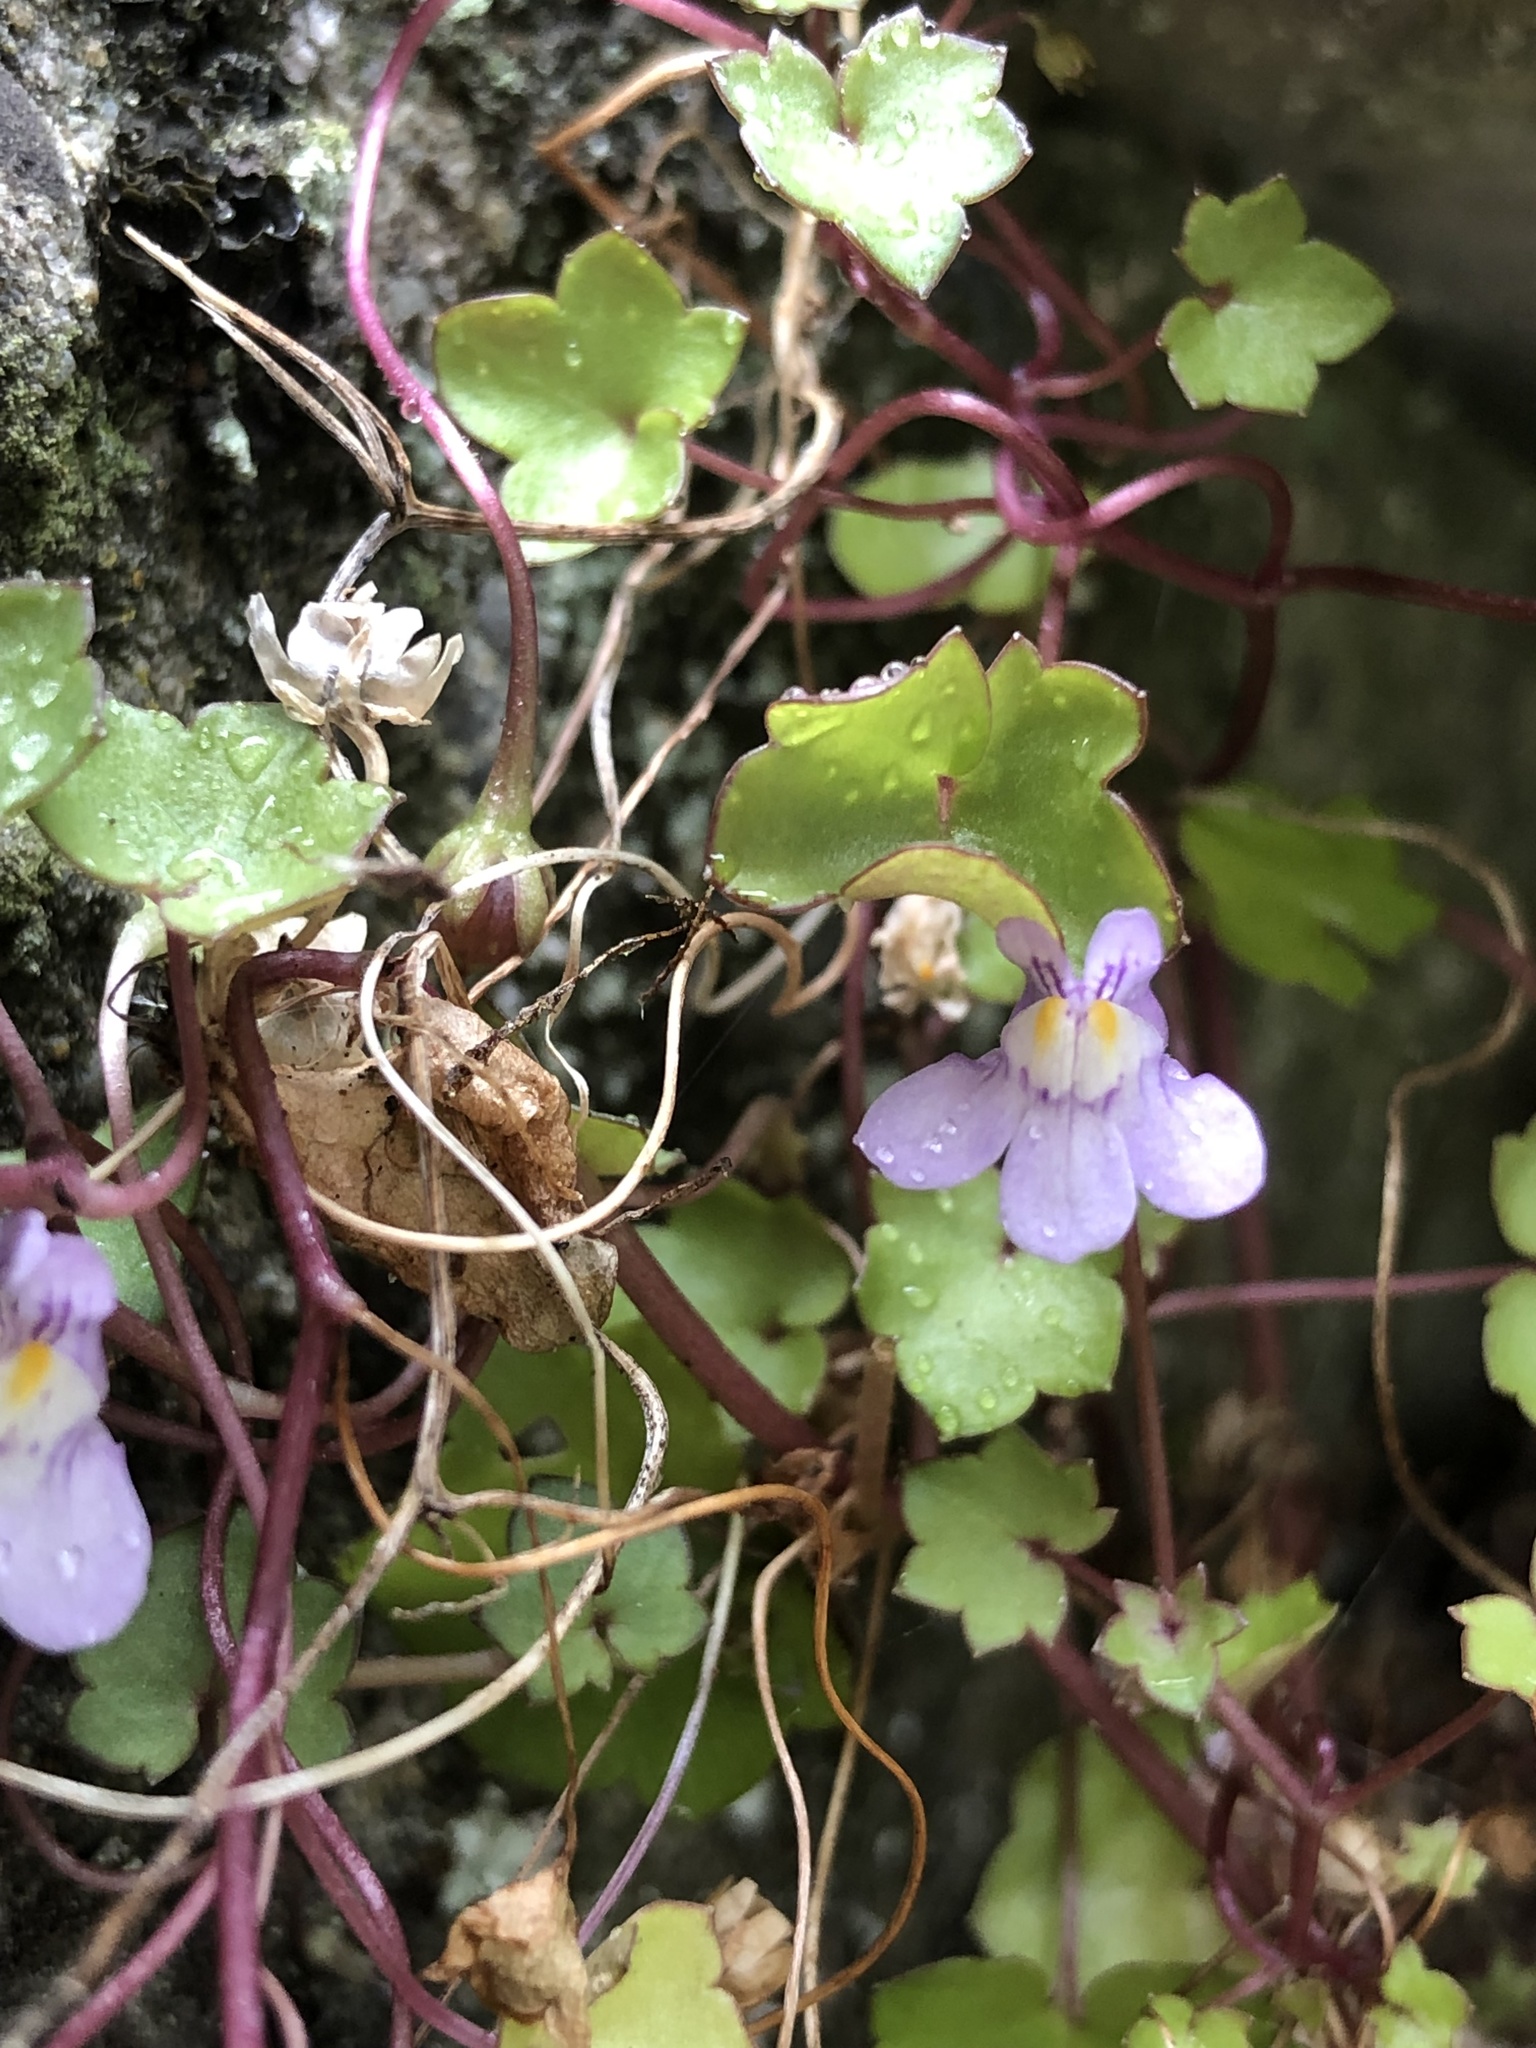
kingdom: Plantae
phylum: Tracheophyta
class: Magnoliopsida
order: Lamiales
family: Plantaginaceae
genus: Cymbalaria
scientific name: Cymbalaria muralis
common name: Ivy-leaved toadflax
